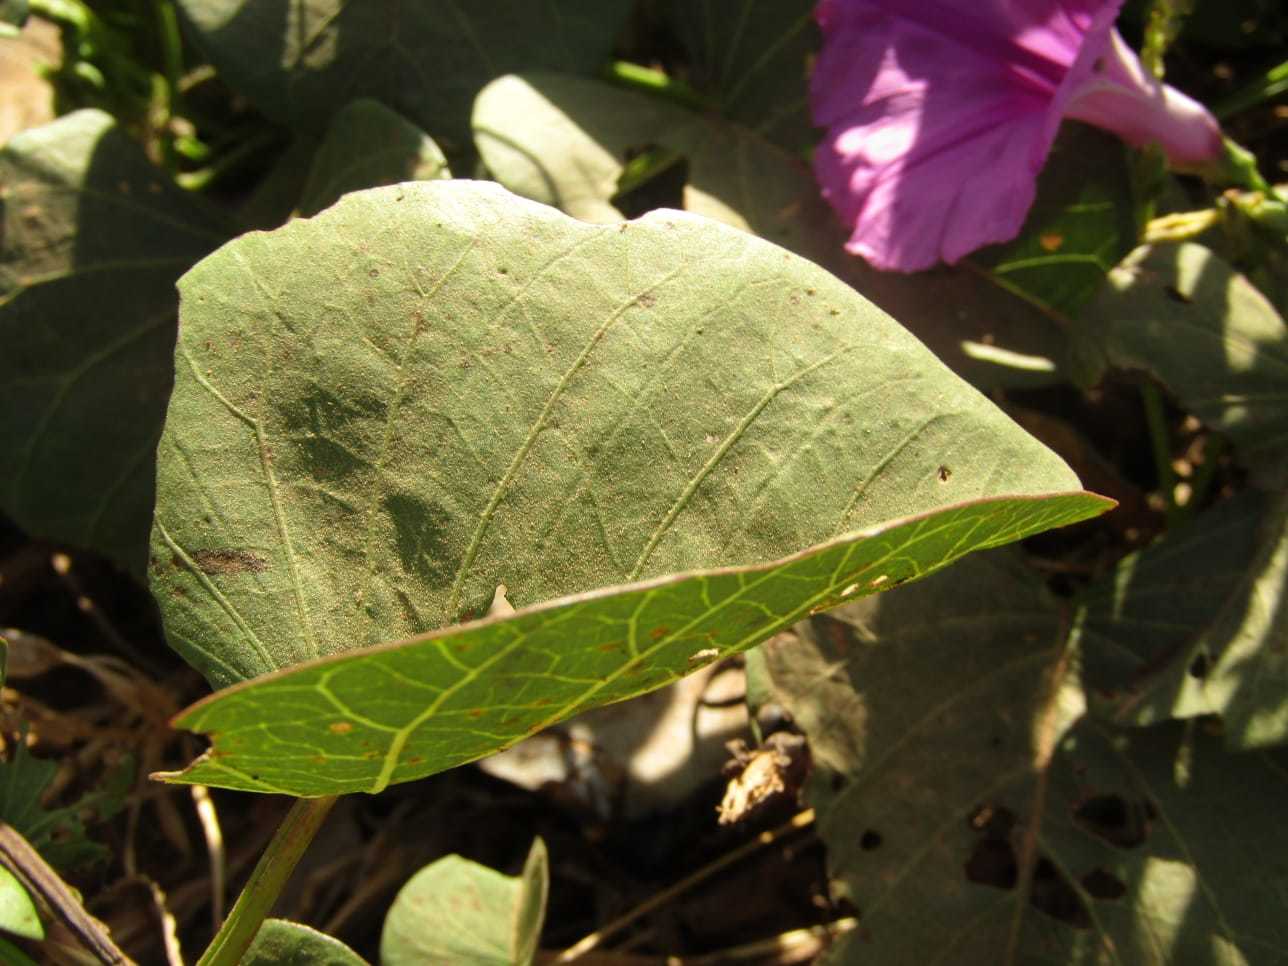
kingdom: Plantae
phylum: Tracheophyta
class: Magnoliopsida
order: Solanales
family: Convolvulaceae
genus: Ipomoea
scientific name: Ipomoea asarifolia
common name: Ginger-leaf morning-glory
